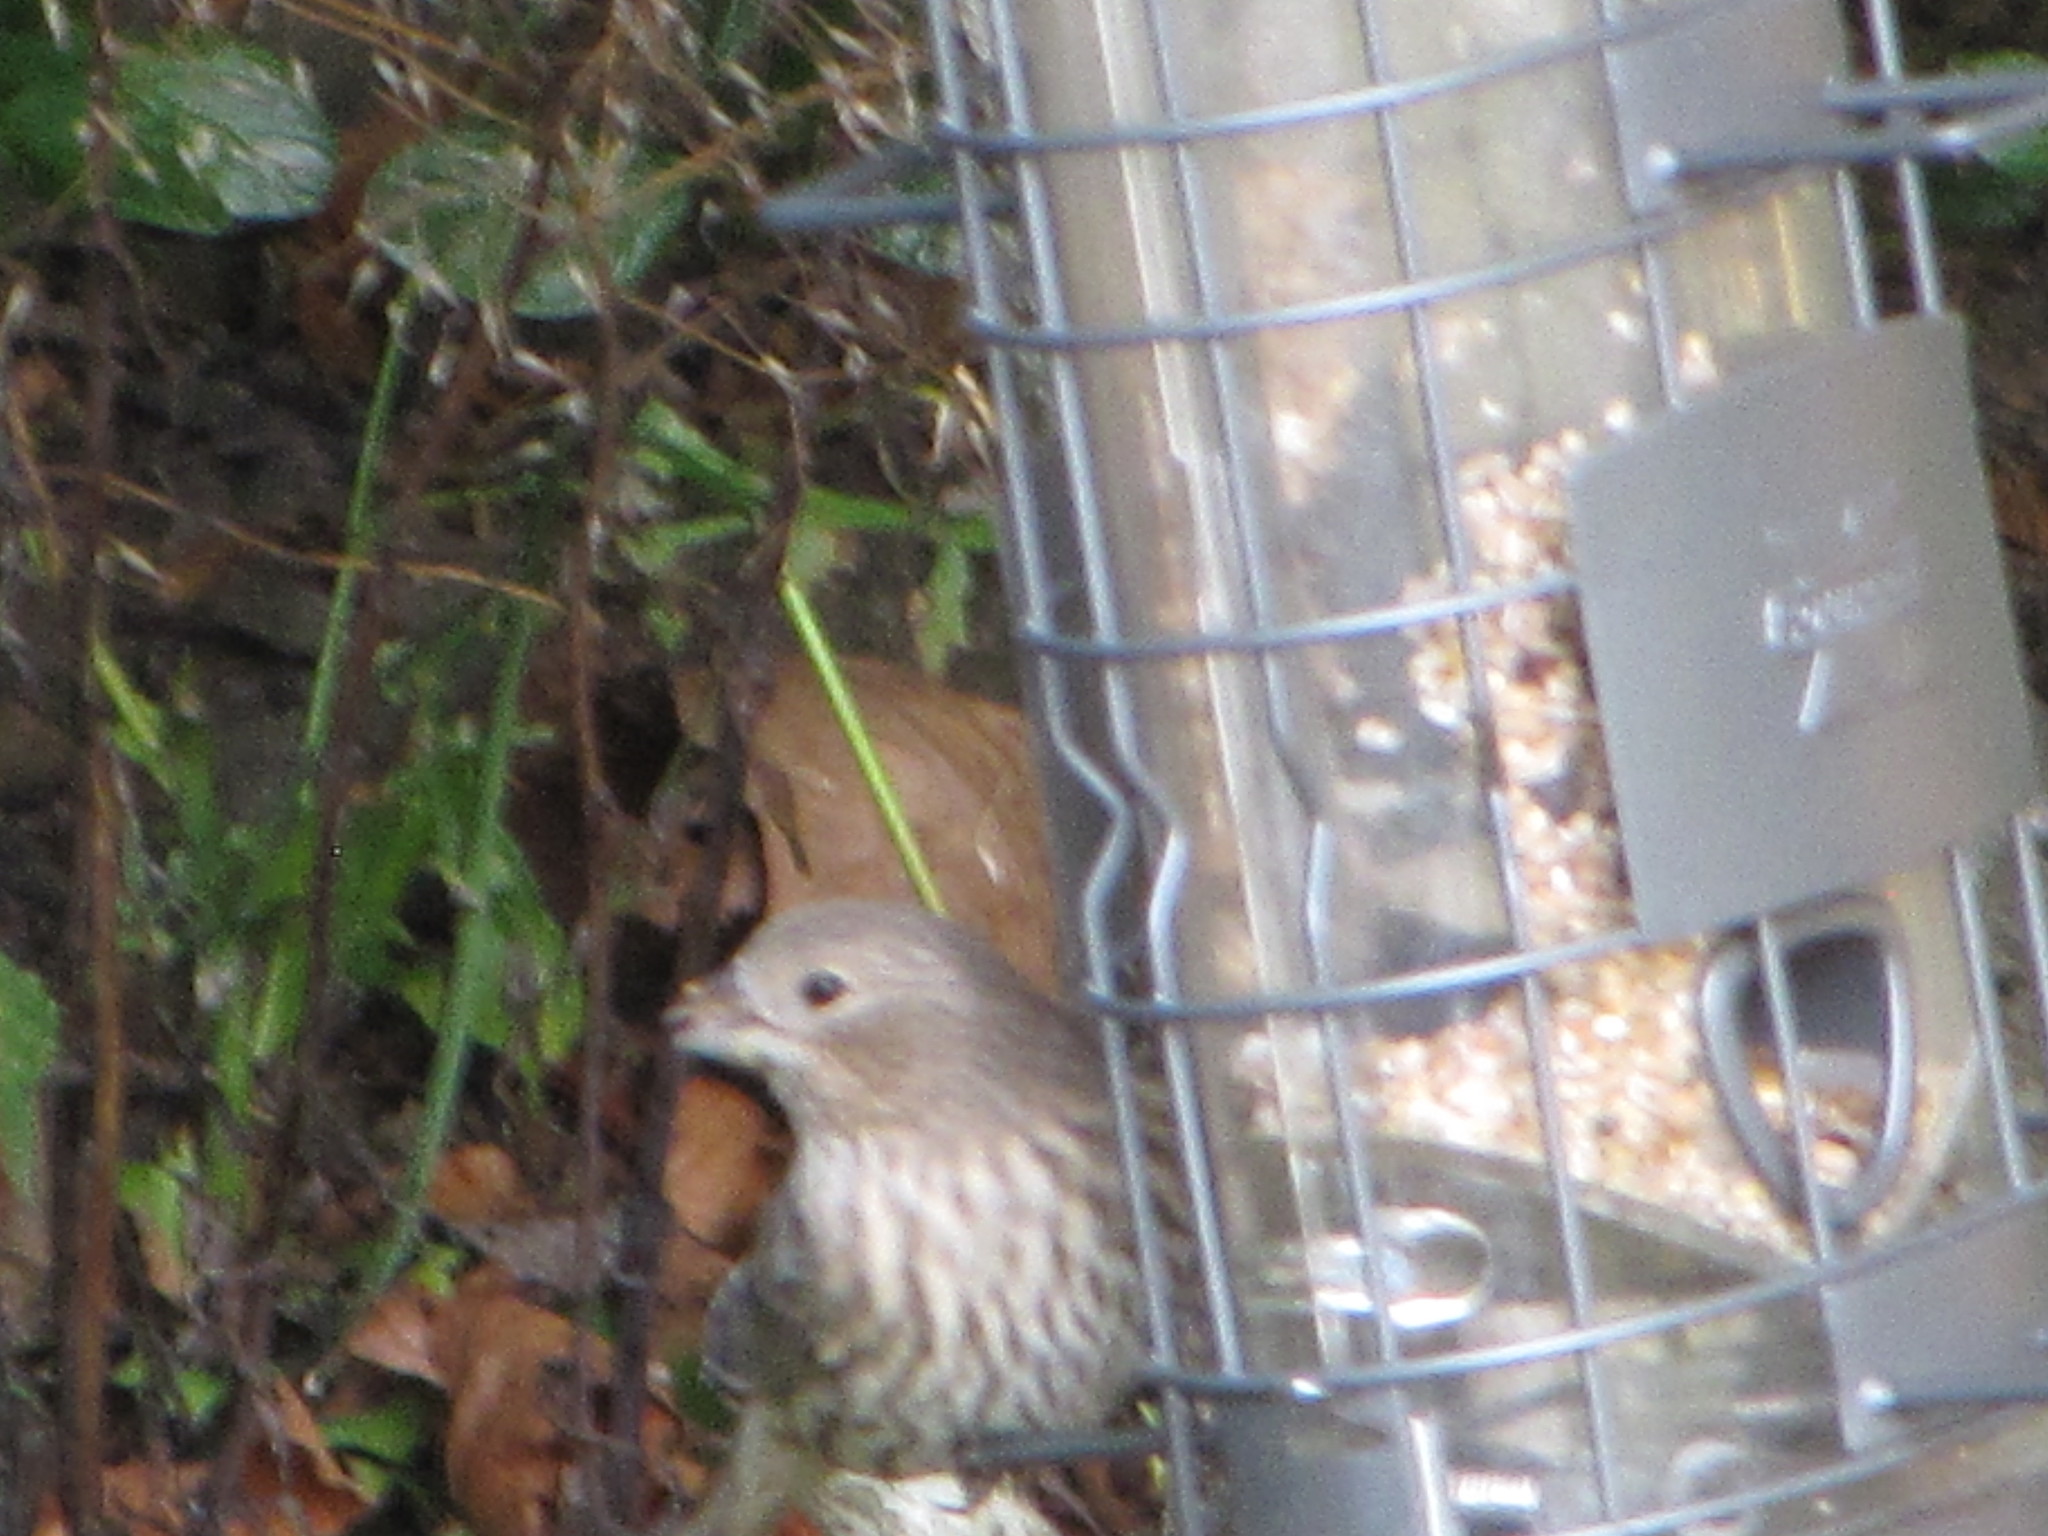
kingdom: Animalia
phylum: Chordata
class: Aves
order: Passeriformes
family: Fringillidae
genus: Haemorhous
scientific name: Haemorhous mexicanus
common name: House finch
